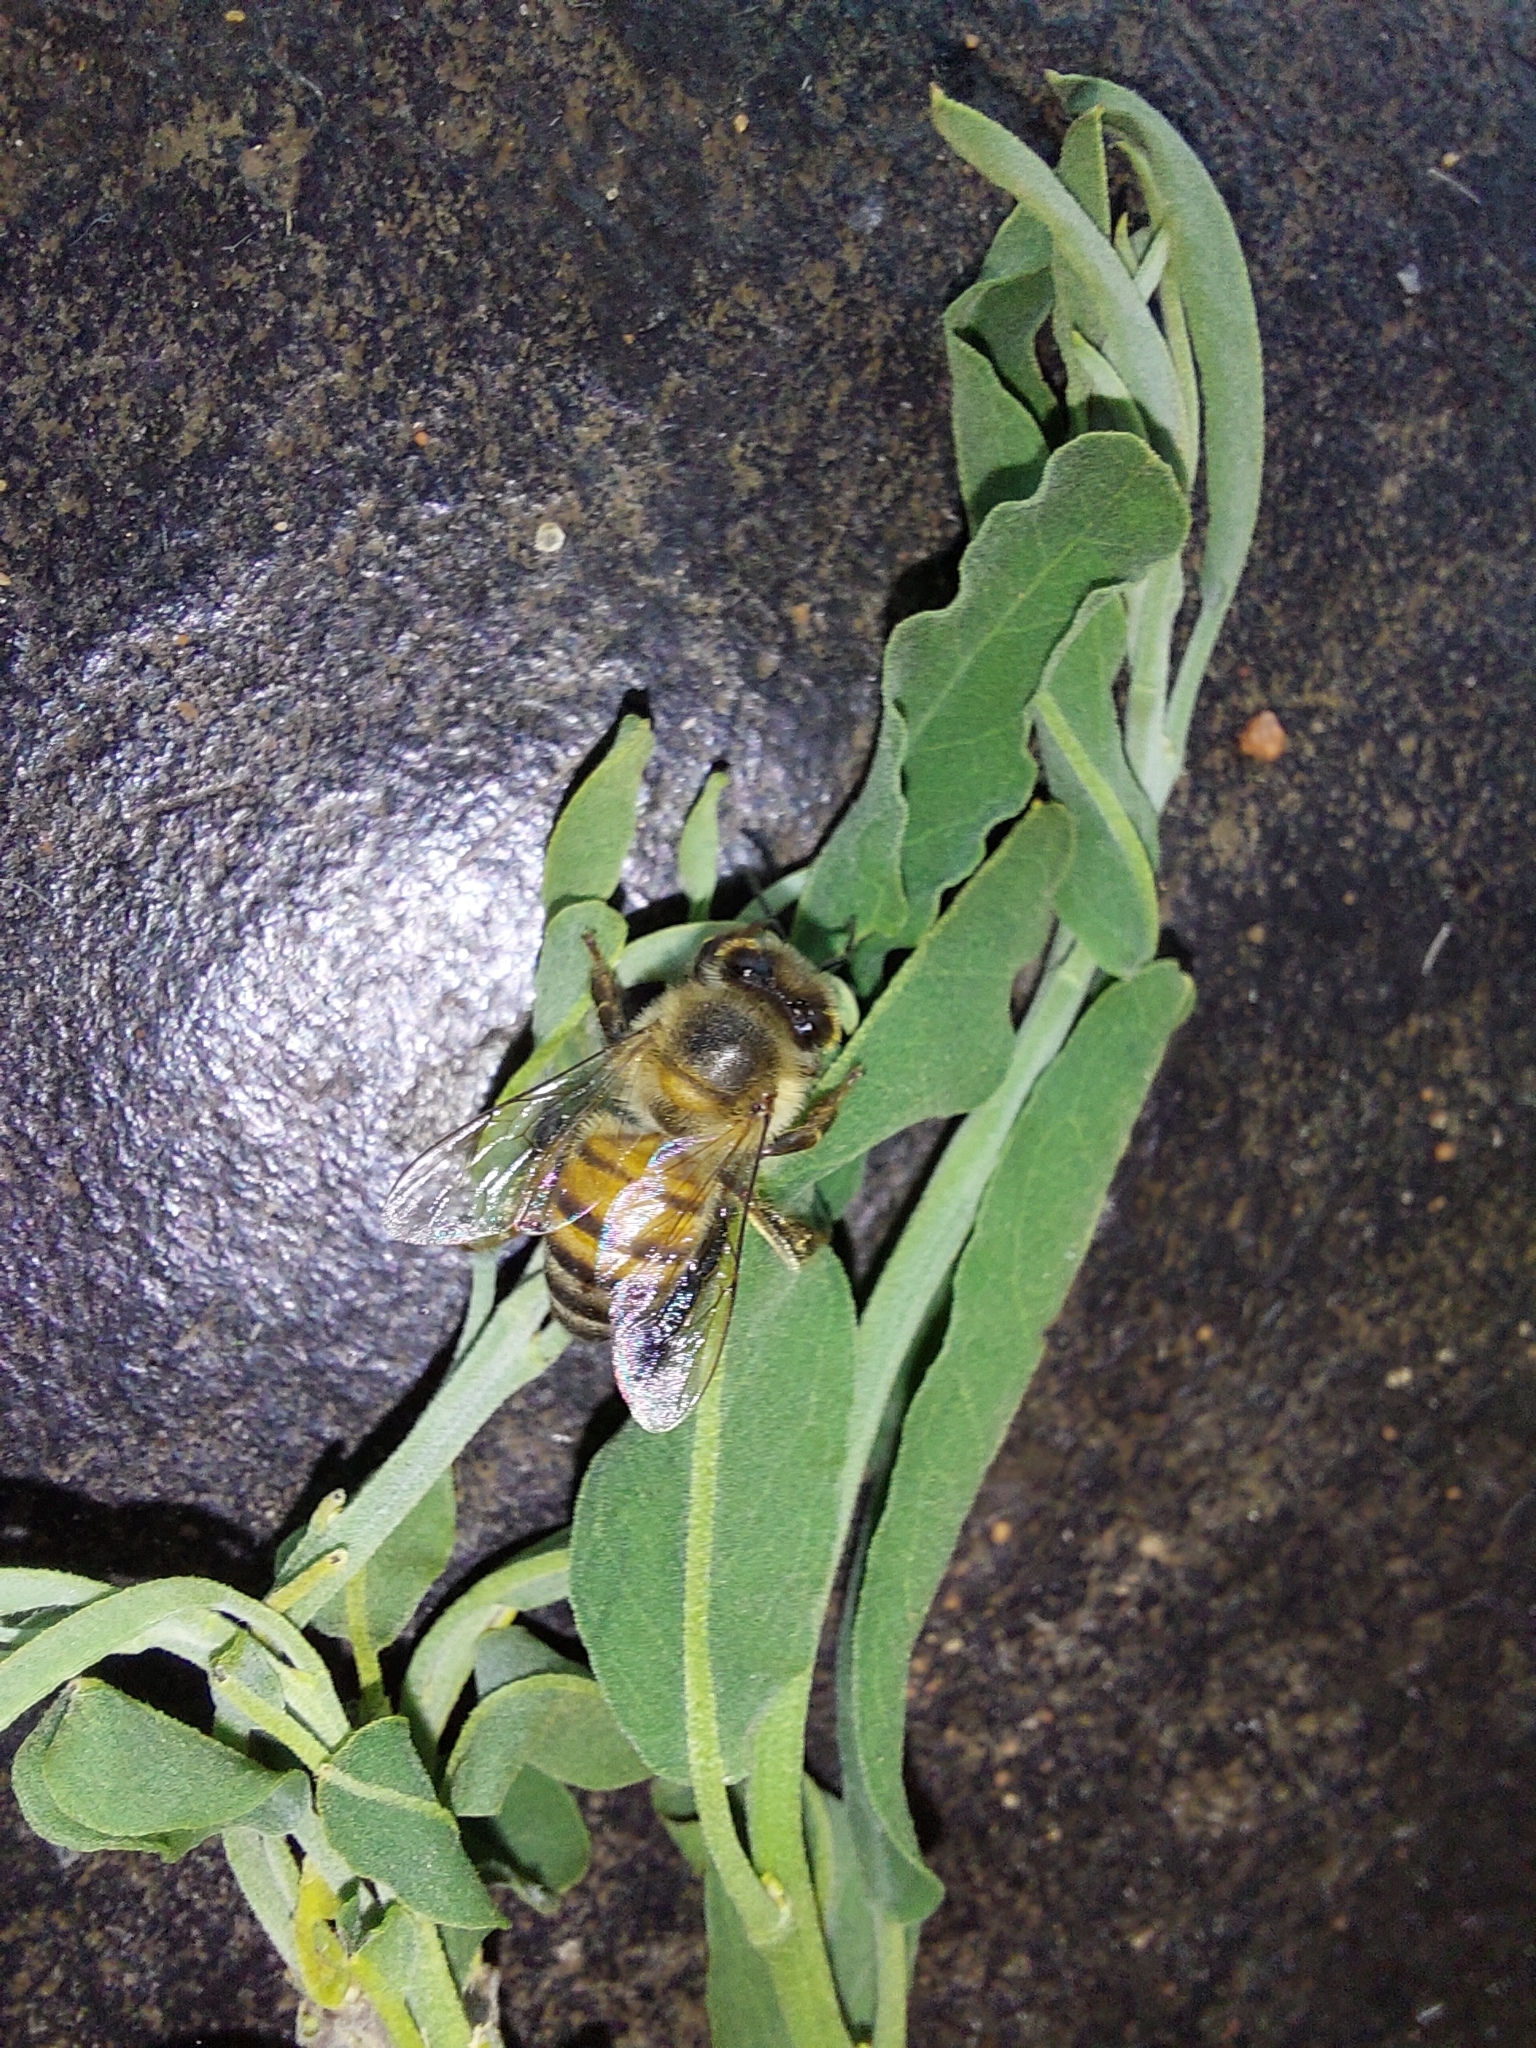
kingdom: Animalia
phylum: Arthropoda
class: Insecta
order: Hymenoptera
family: Apidae
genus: Apis
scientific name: Apis mellifera
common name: Honey bee
